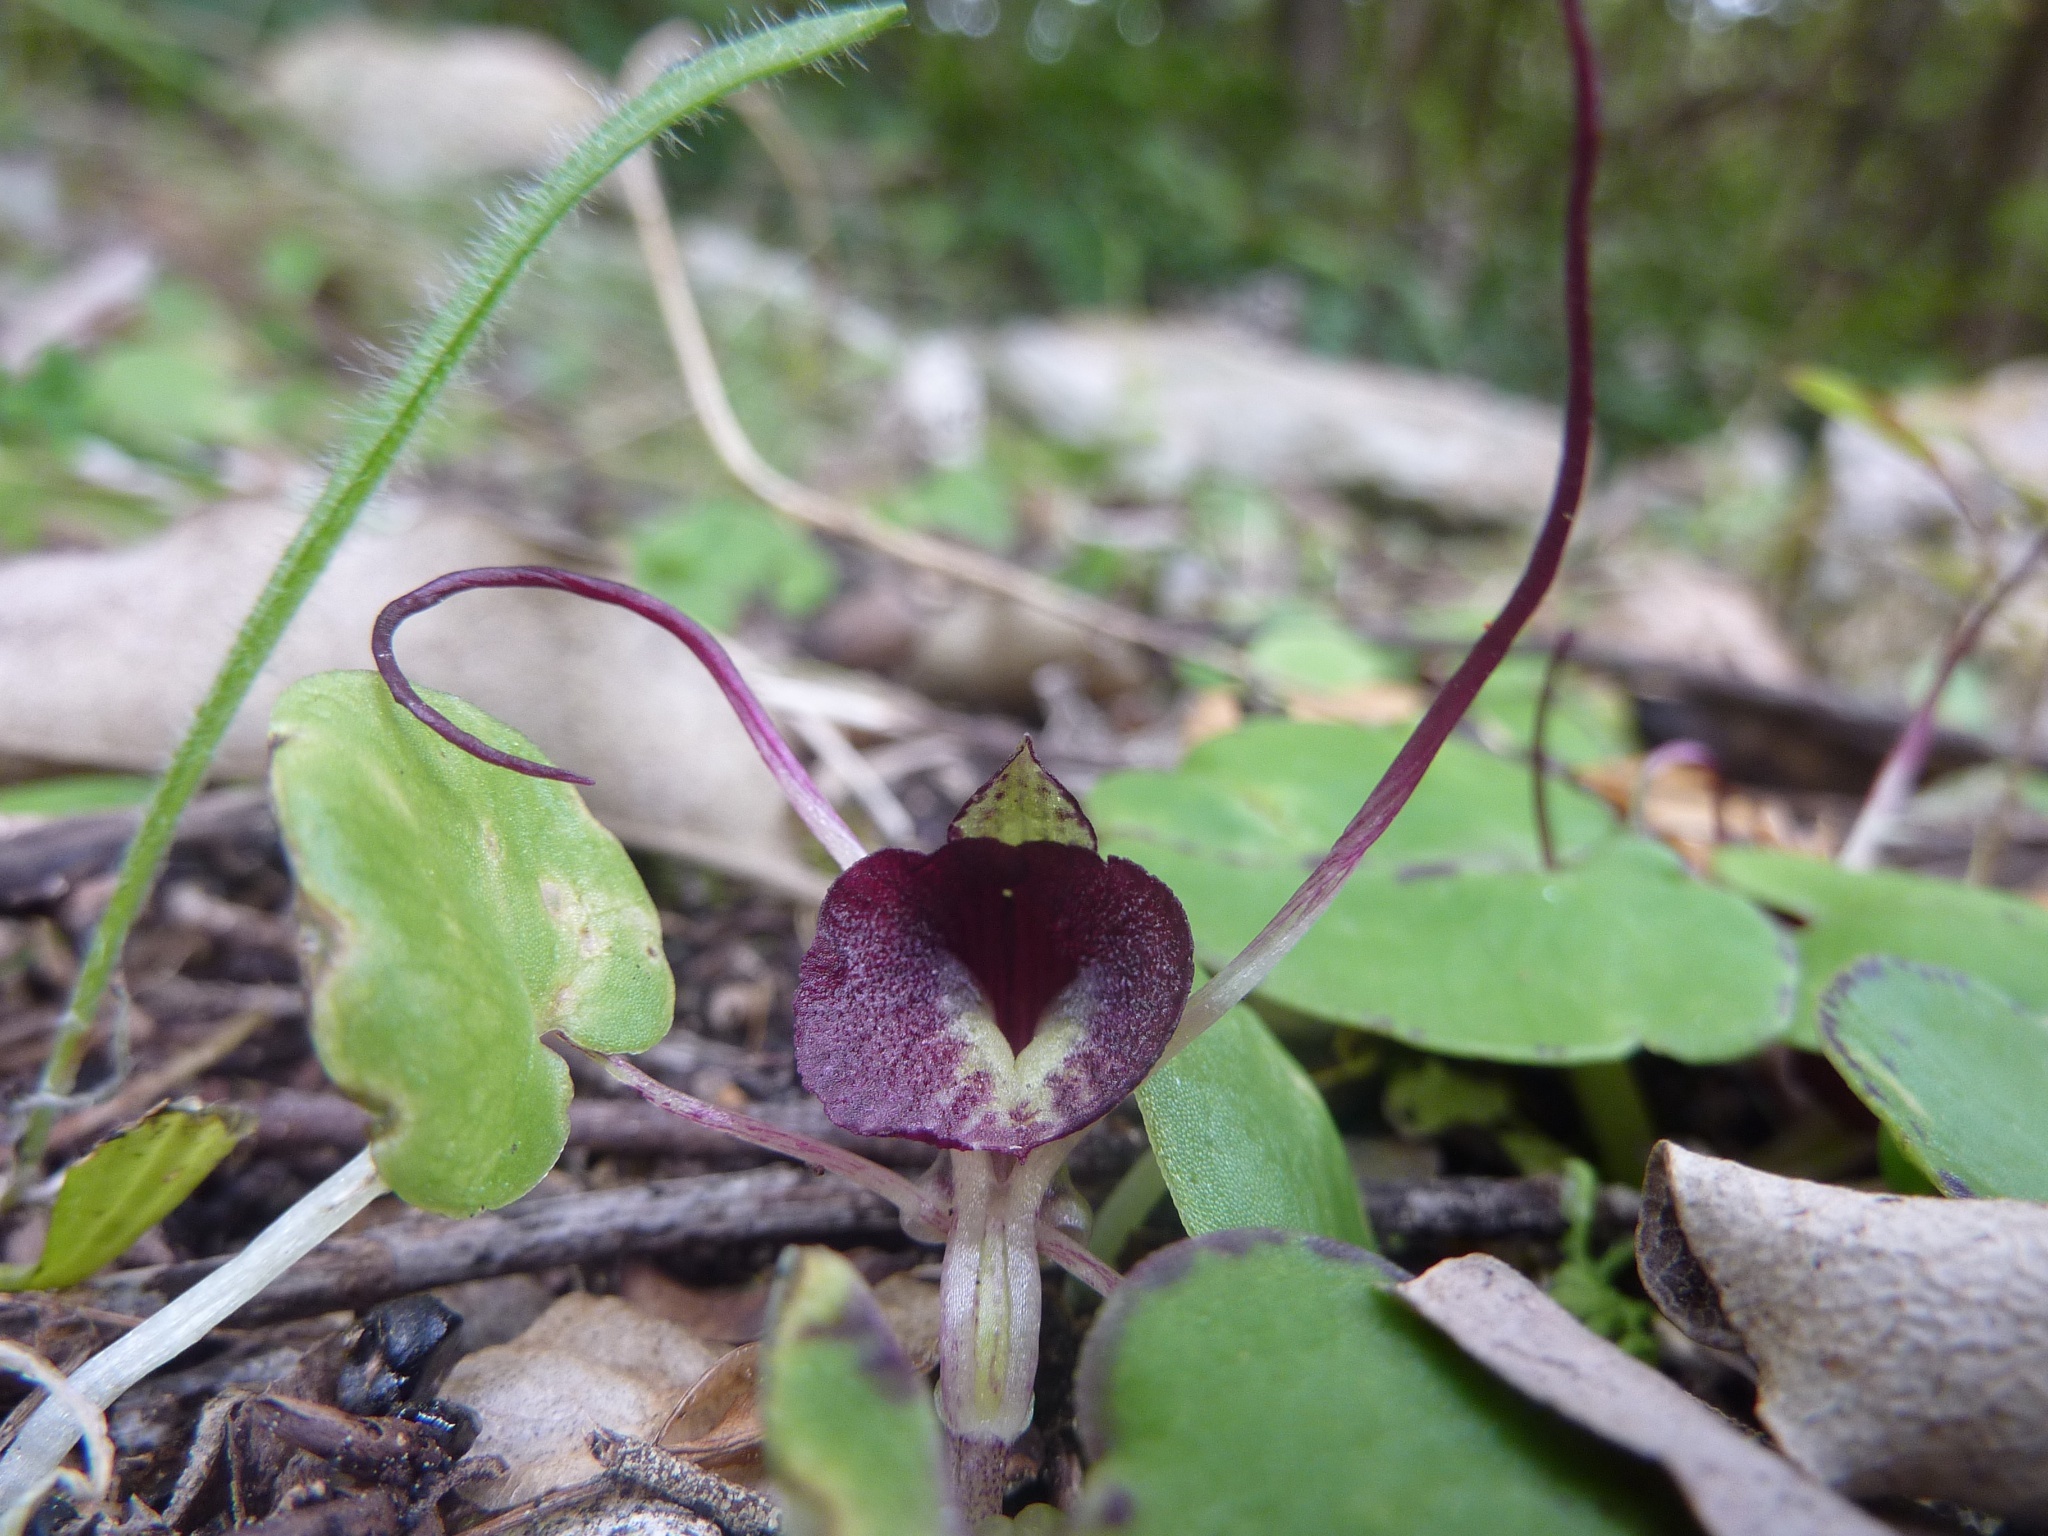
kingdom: Plantae
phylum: Tracheophyta
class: Liliopsida
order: Asparagales
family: Orchidaceae
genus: Corybas
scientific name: Corybas macranthus
